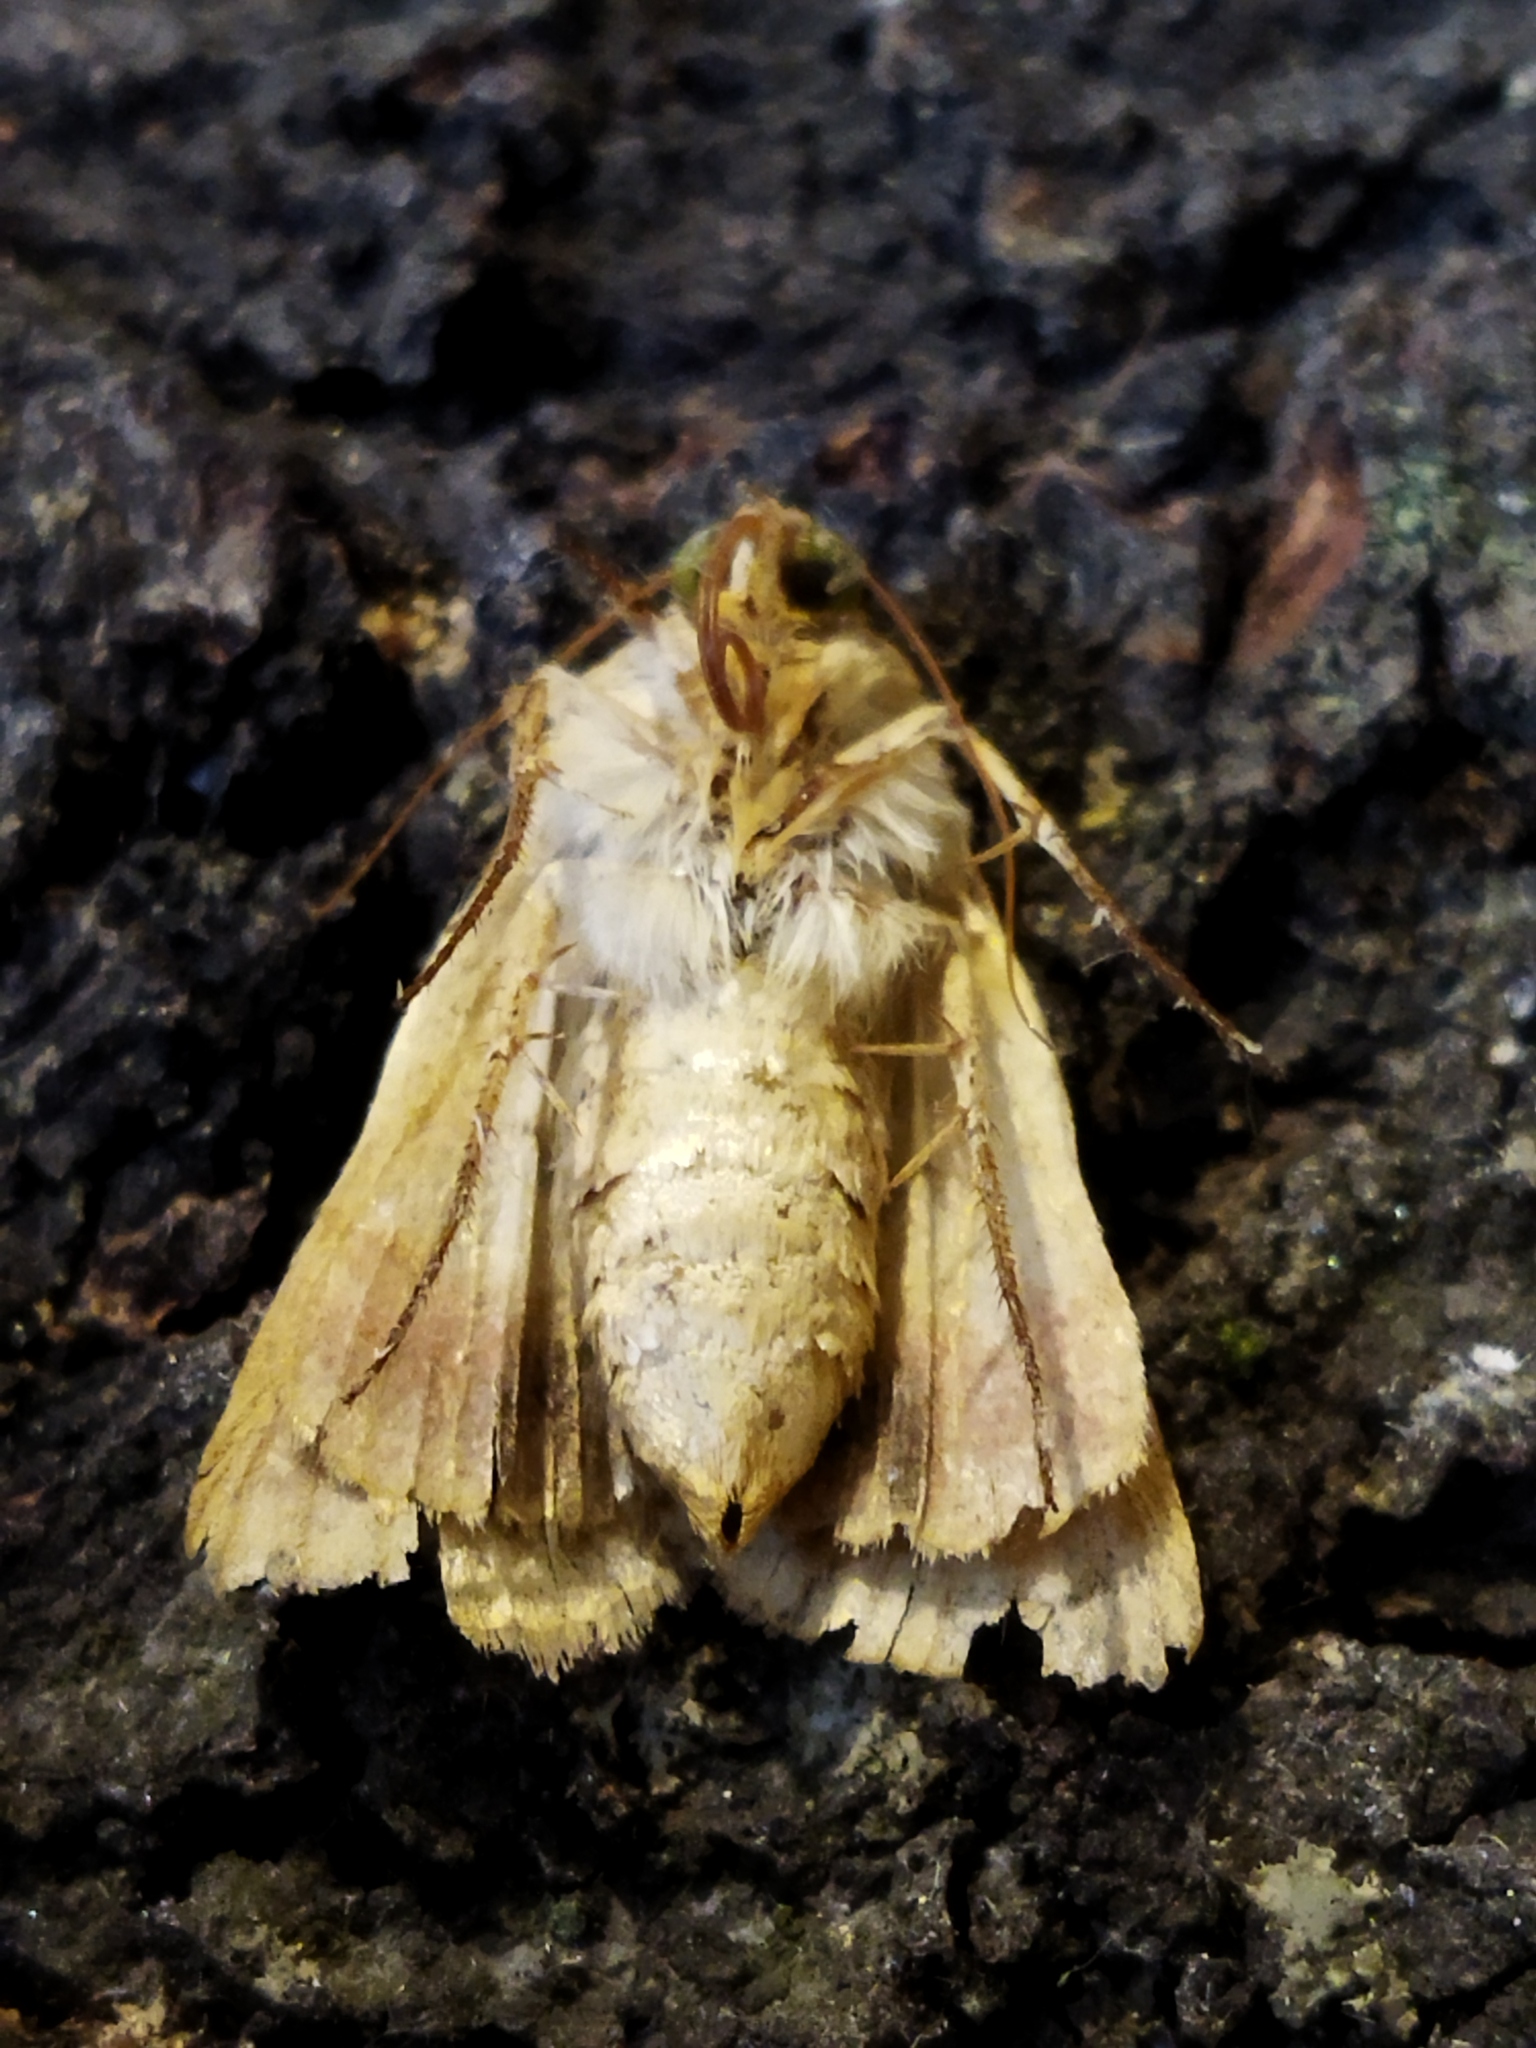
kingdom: Animalia
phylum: Arthropoda
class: Insecta
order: Lepidoptera
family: Noctuidae
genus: Helicoverpa
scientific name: Helicoverpa armigera
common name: Cotton bollworm
